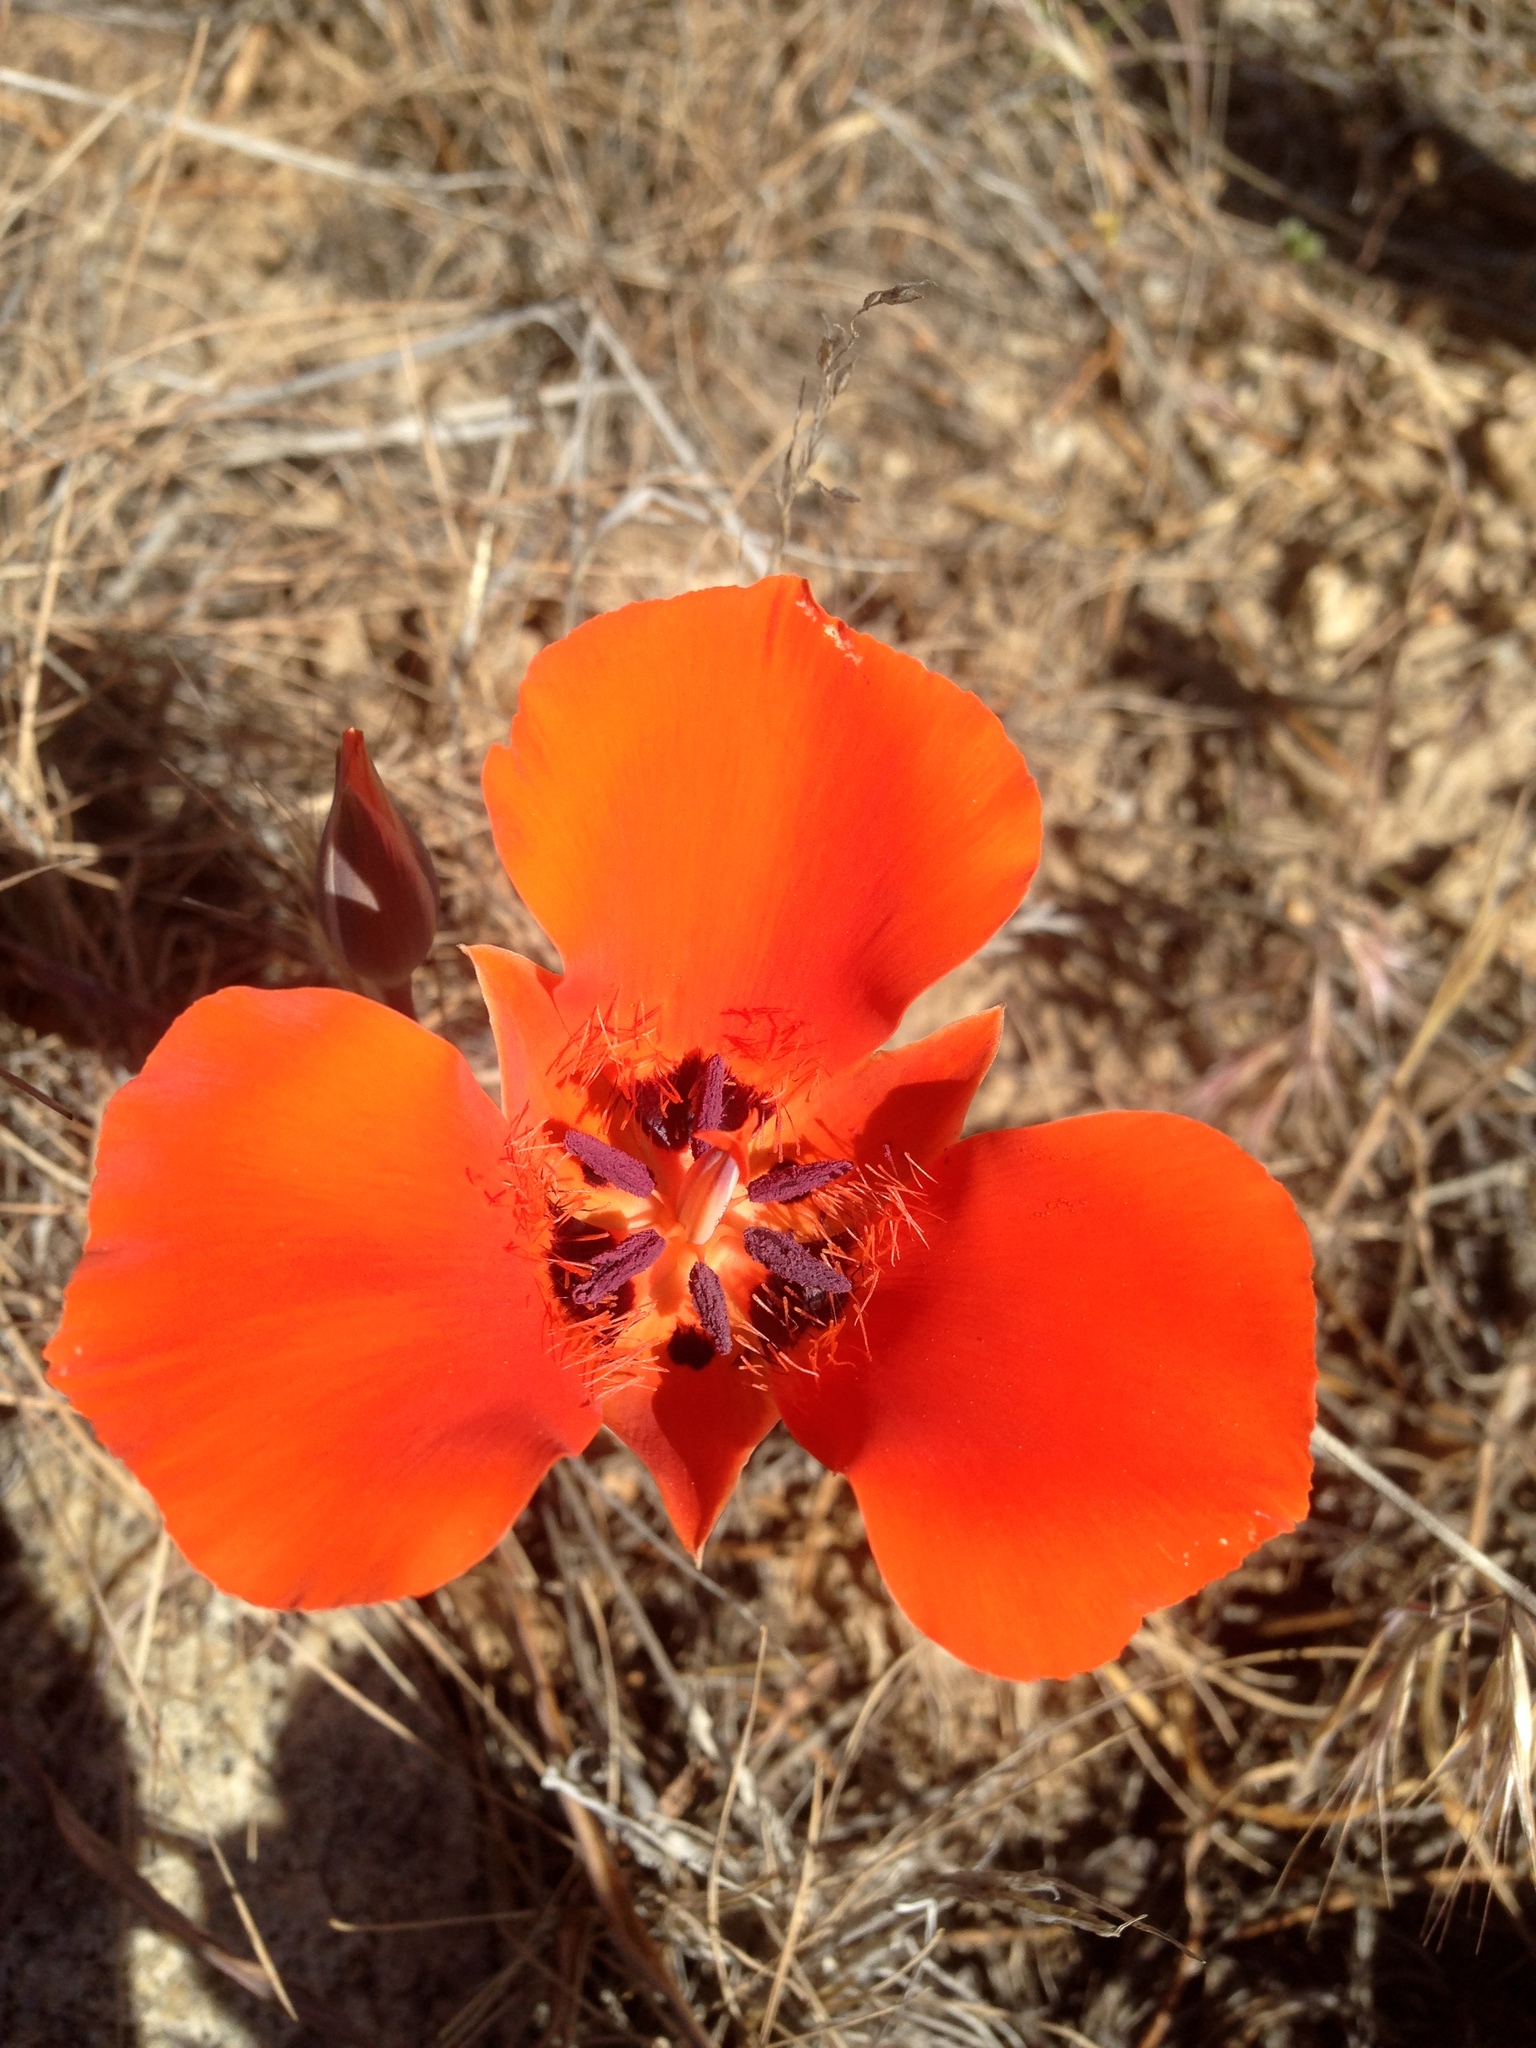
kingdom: Plantae
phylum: Tracheophyta
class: Liliopsida
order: Liliales
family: Liliaceae
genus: Calochortus
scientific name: Calochortus kennedyi
